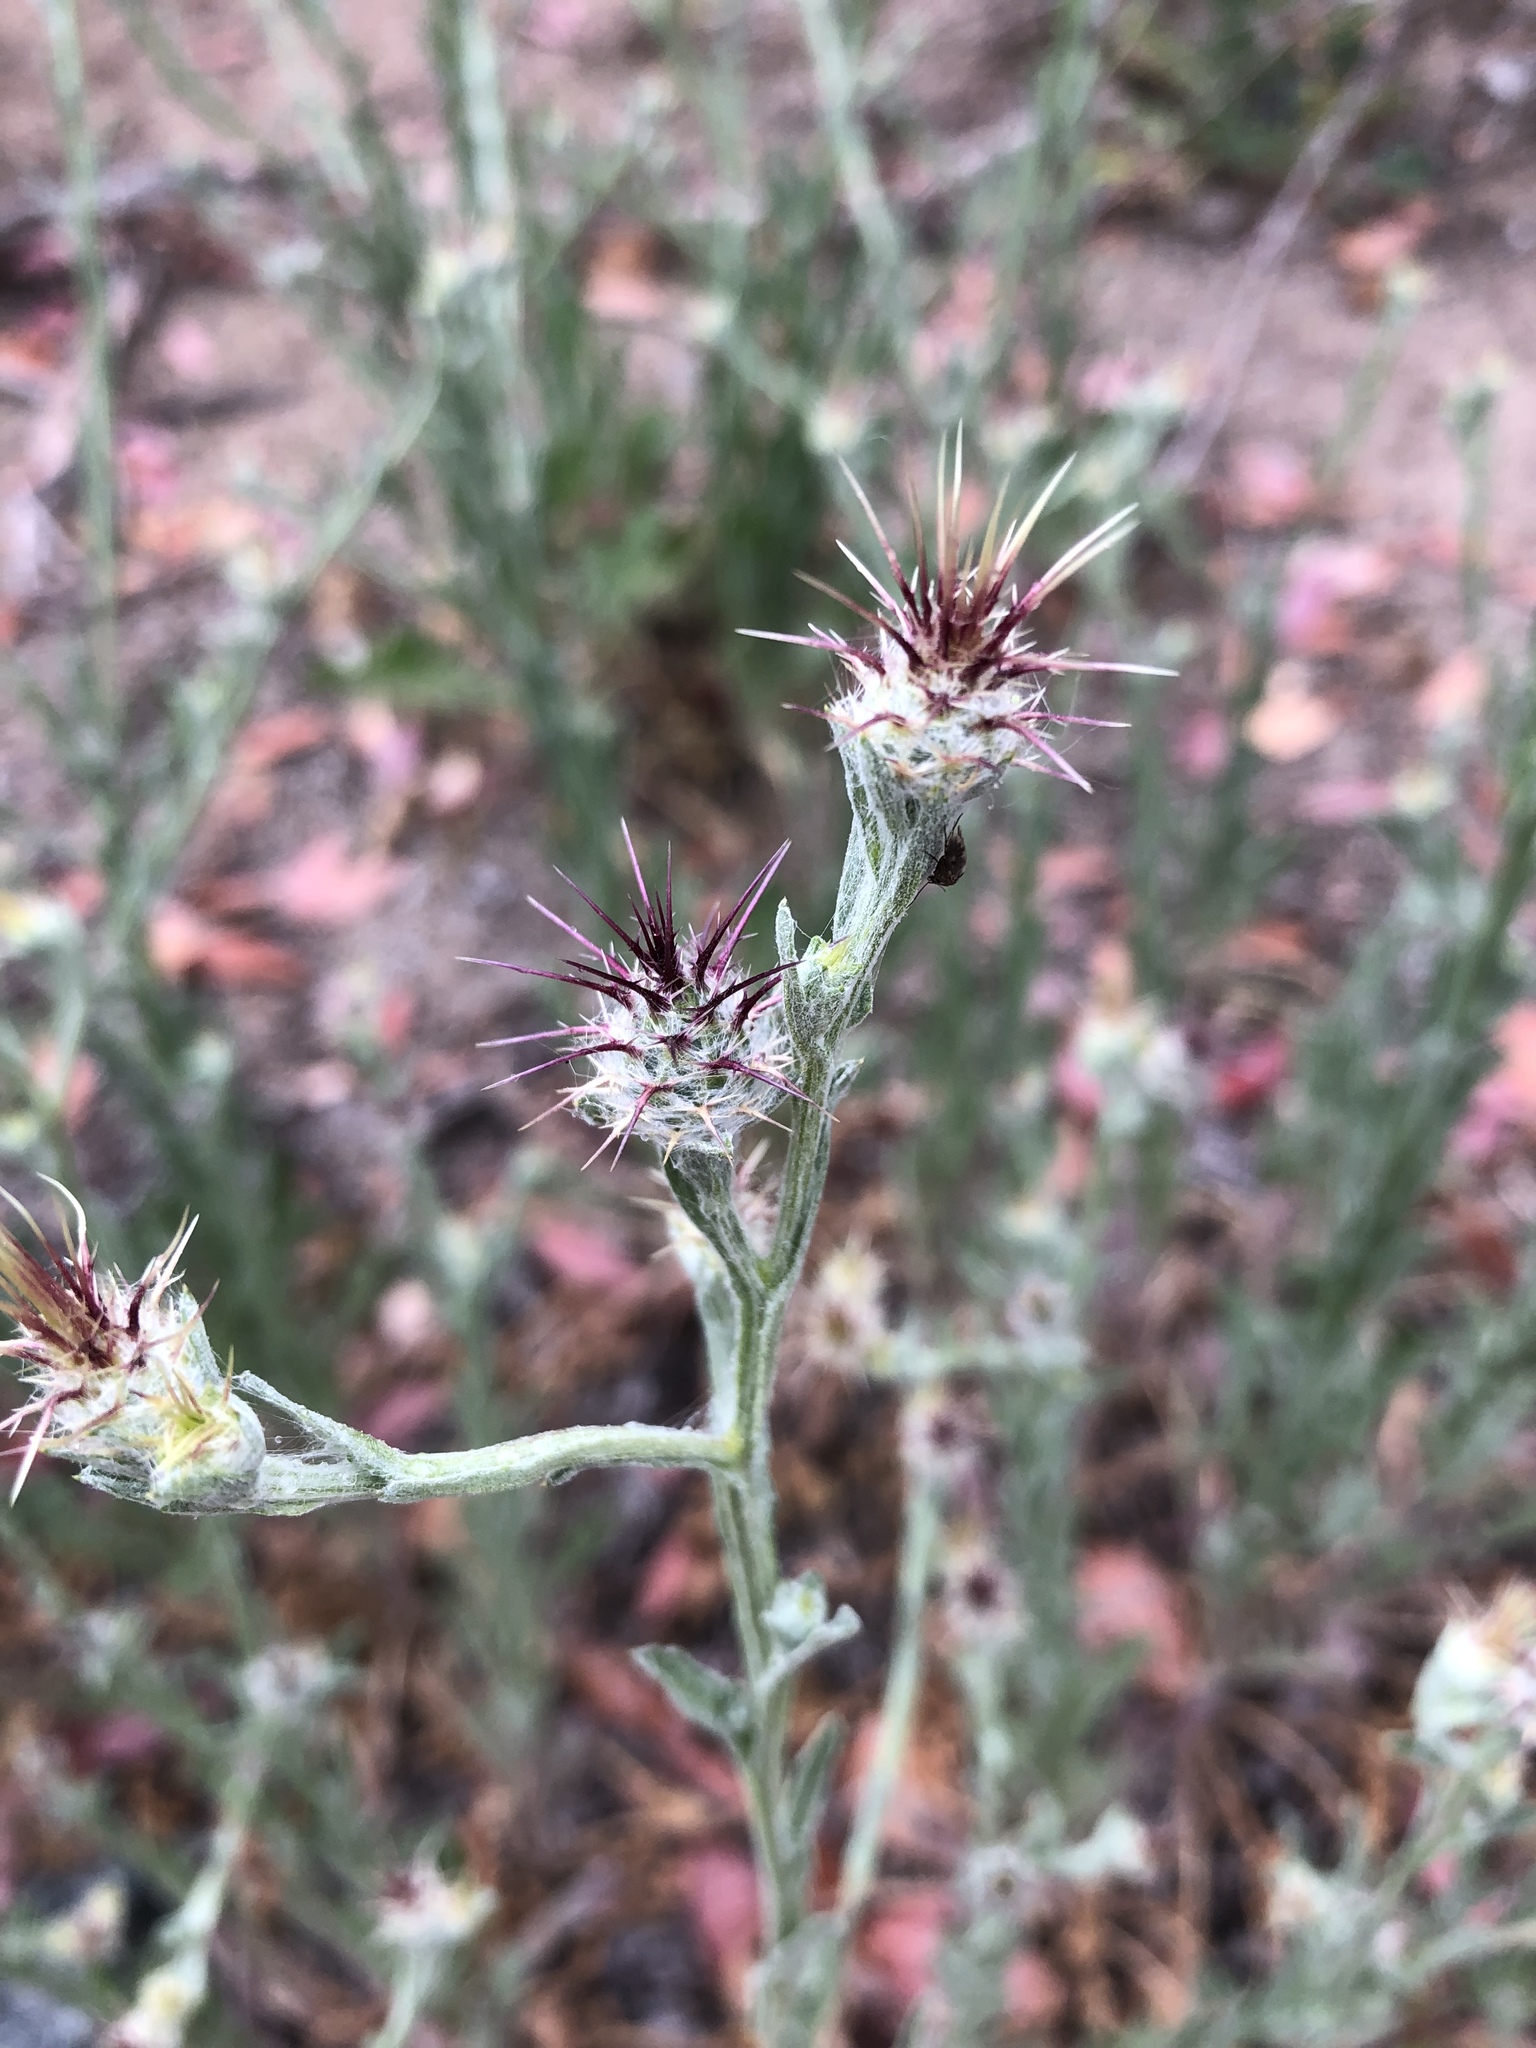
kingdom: Plantae
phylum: Tracheophyta
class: Magnoliopsida
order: Asterales
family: Asteraceae
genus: Centaurea
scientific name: Centaurea melitensis
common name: Maltese star-thistle
